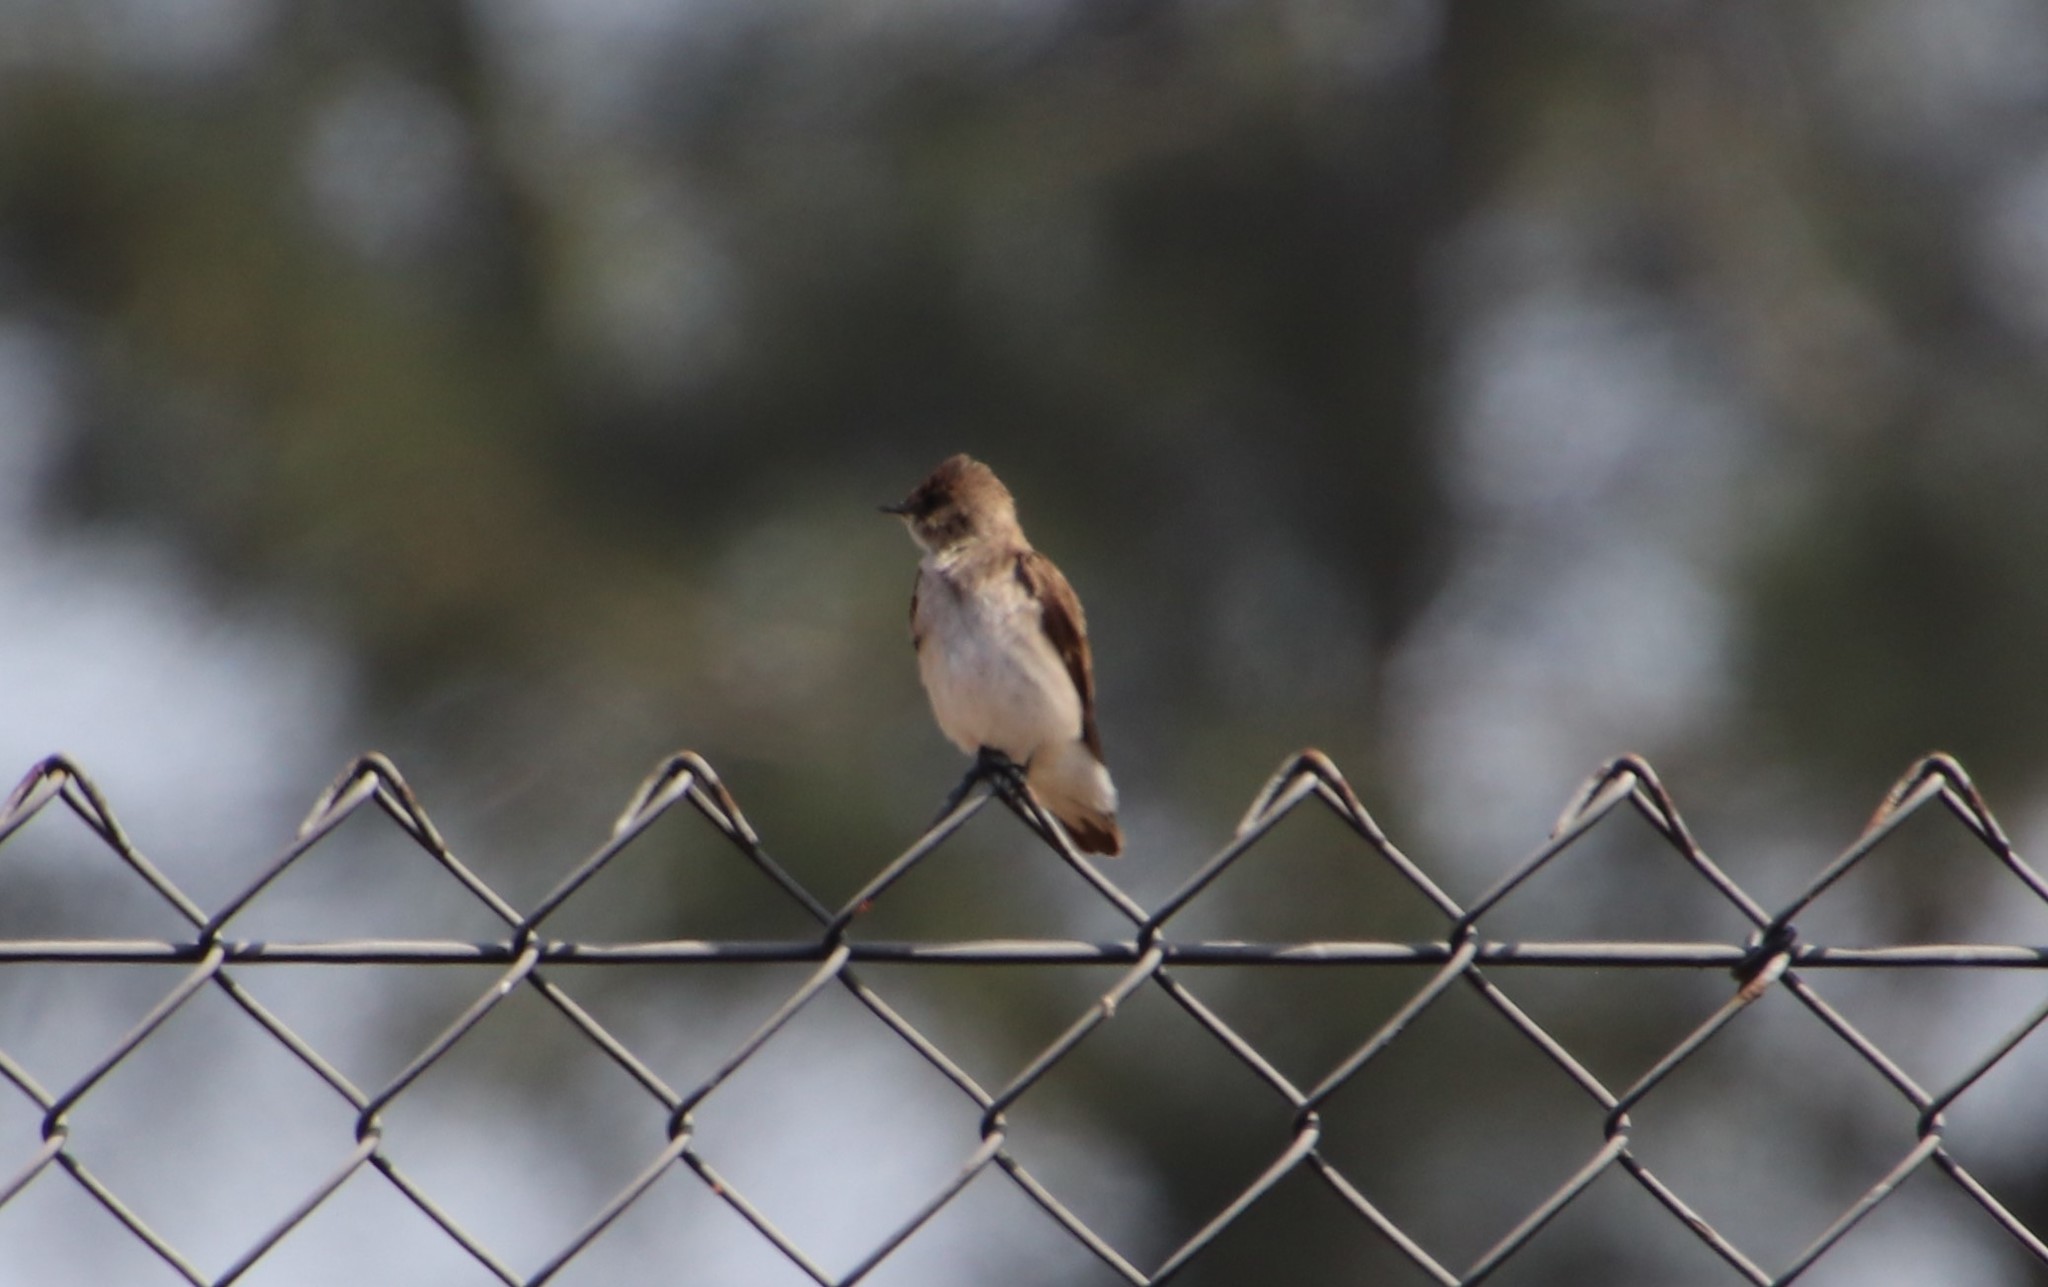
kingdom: Animalia
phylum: Chordata
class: Aves
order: Passeriformes
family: Hirundinidae
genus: Stelgidopteryx
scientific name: Stelgidopteryx serripennis
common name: Northern rough-winged swallow
